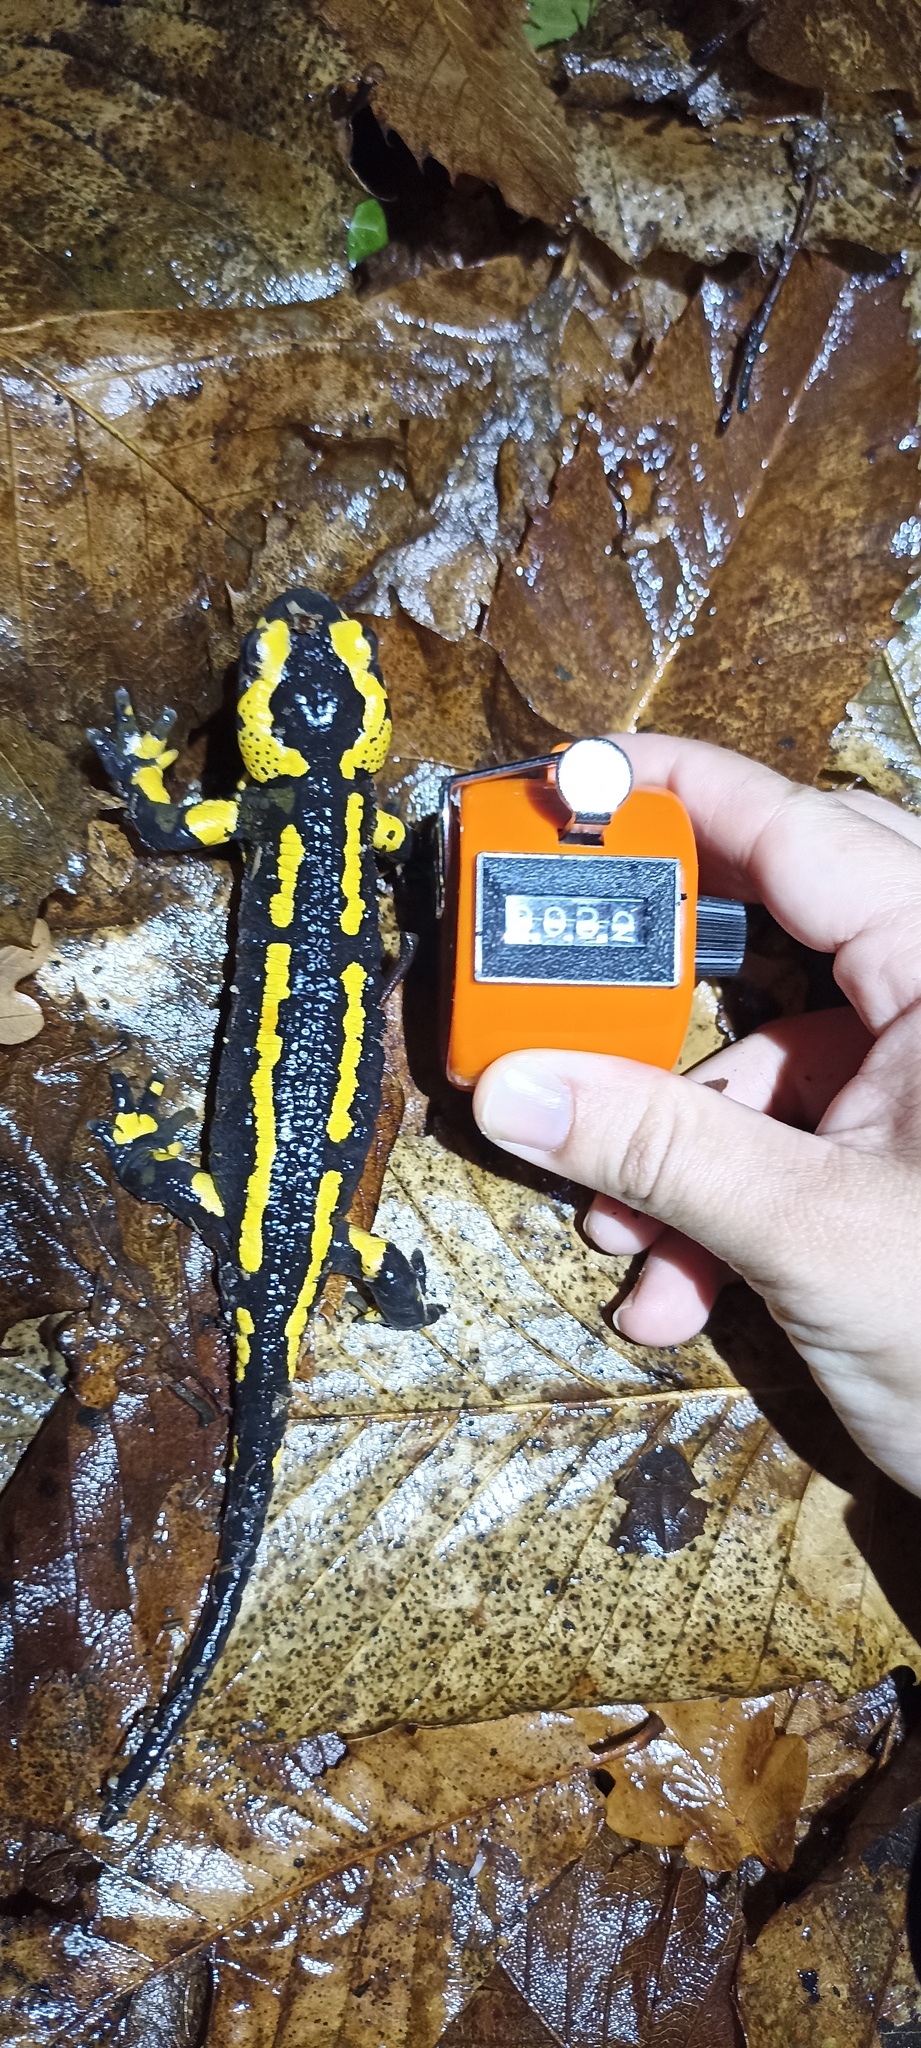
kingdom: Animalia
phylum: Chordata
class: Amphibia
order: Caudata
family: Salamandridae
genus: Salamandra
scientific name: Salamandra salamandra
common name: Fire salamander
